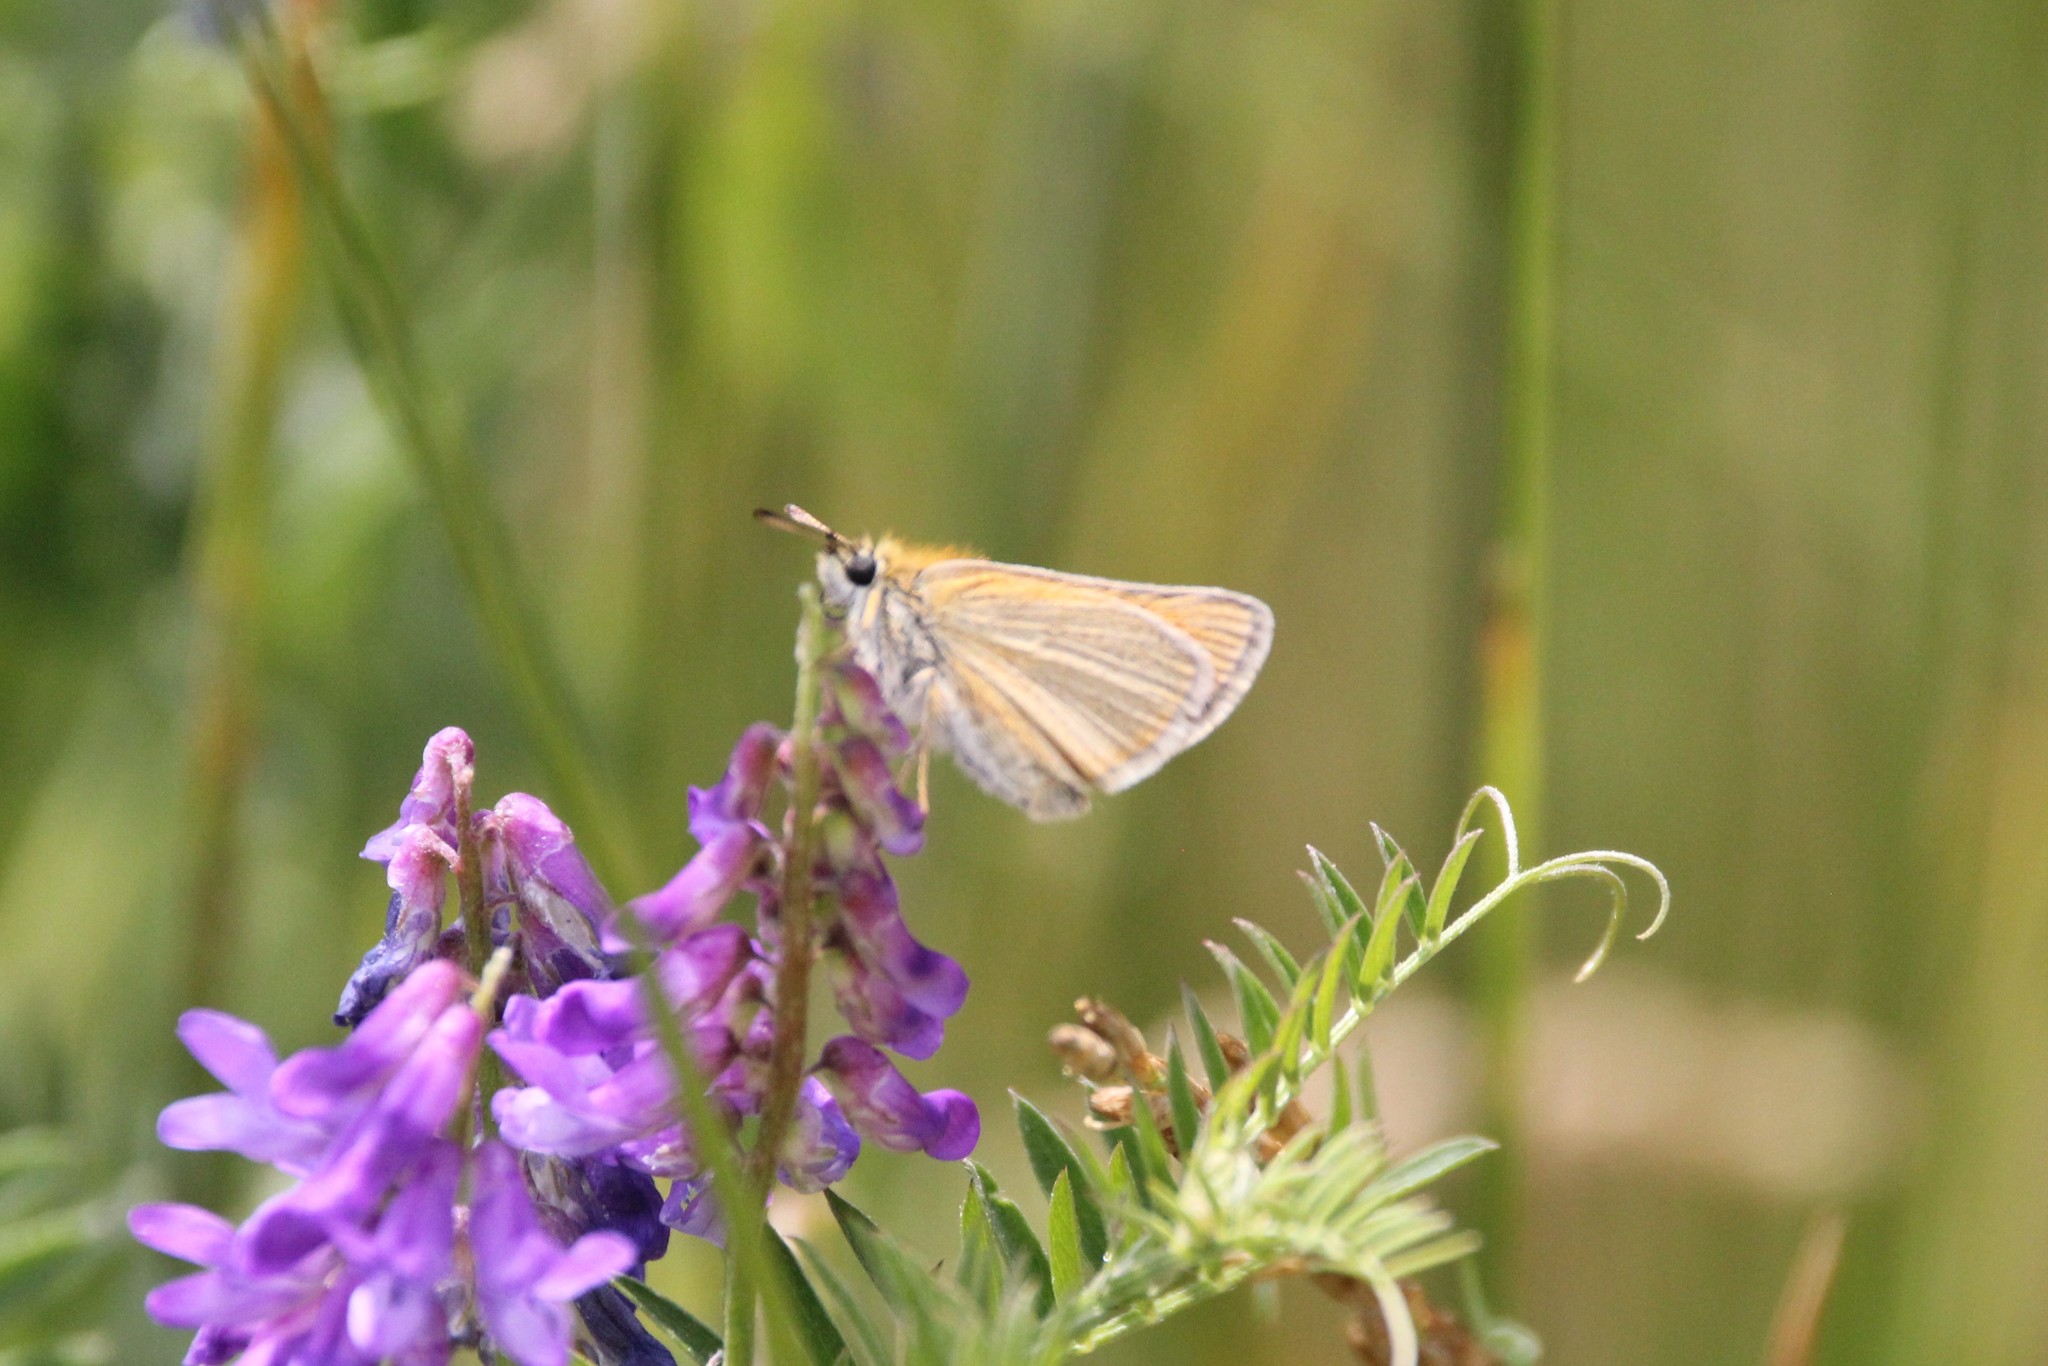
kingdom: Animalia
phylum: Arthropoda
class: Insecta
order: Lepidoptera
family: Hesperiidae
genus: Thymelicus
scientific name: Thymelicus lineola
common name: Essex skipper
